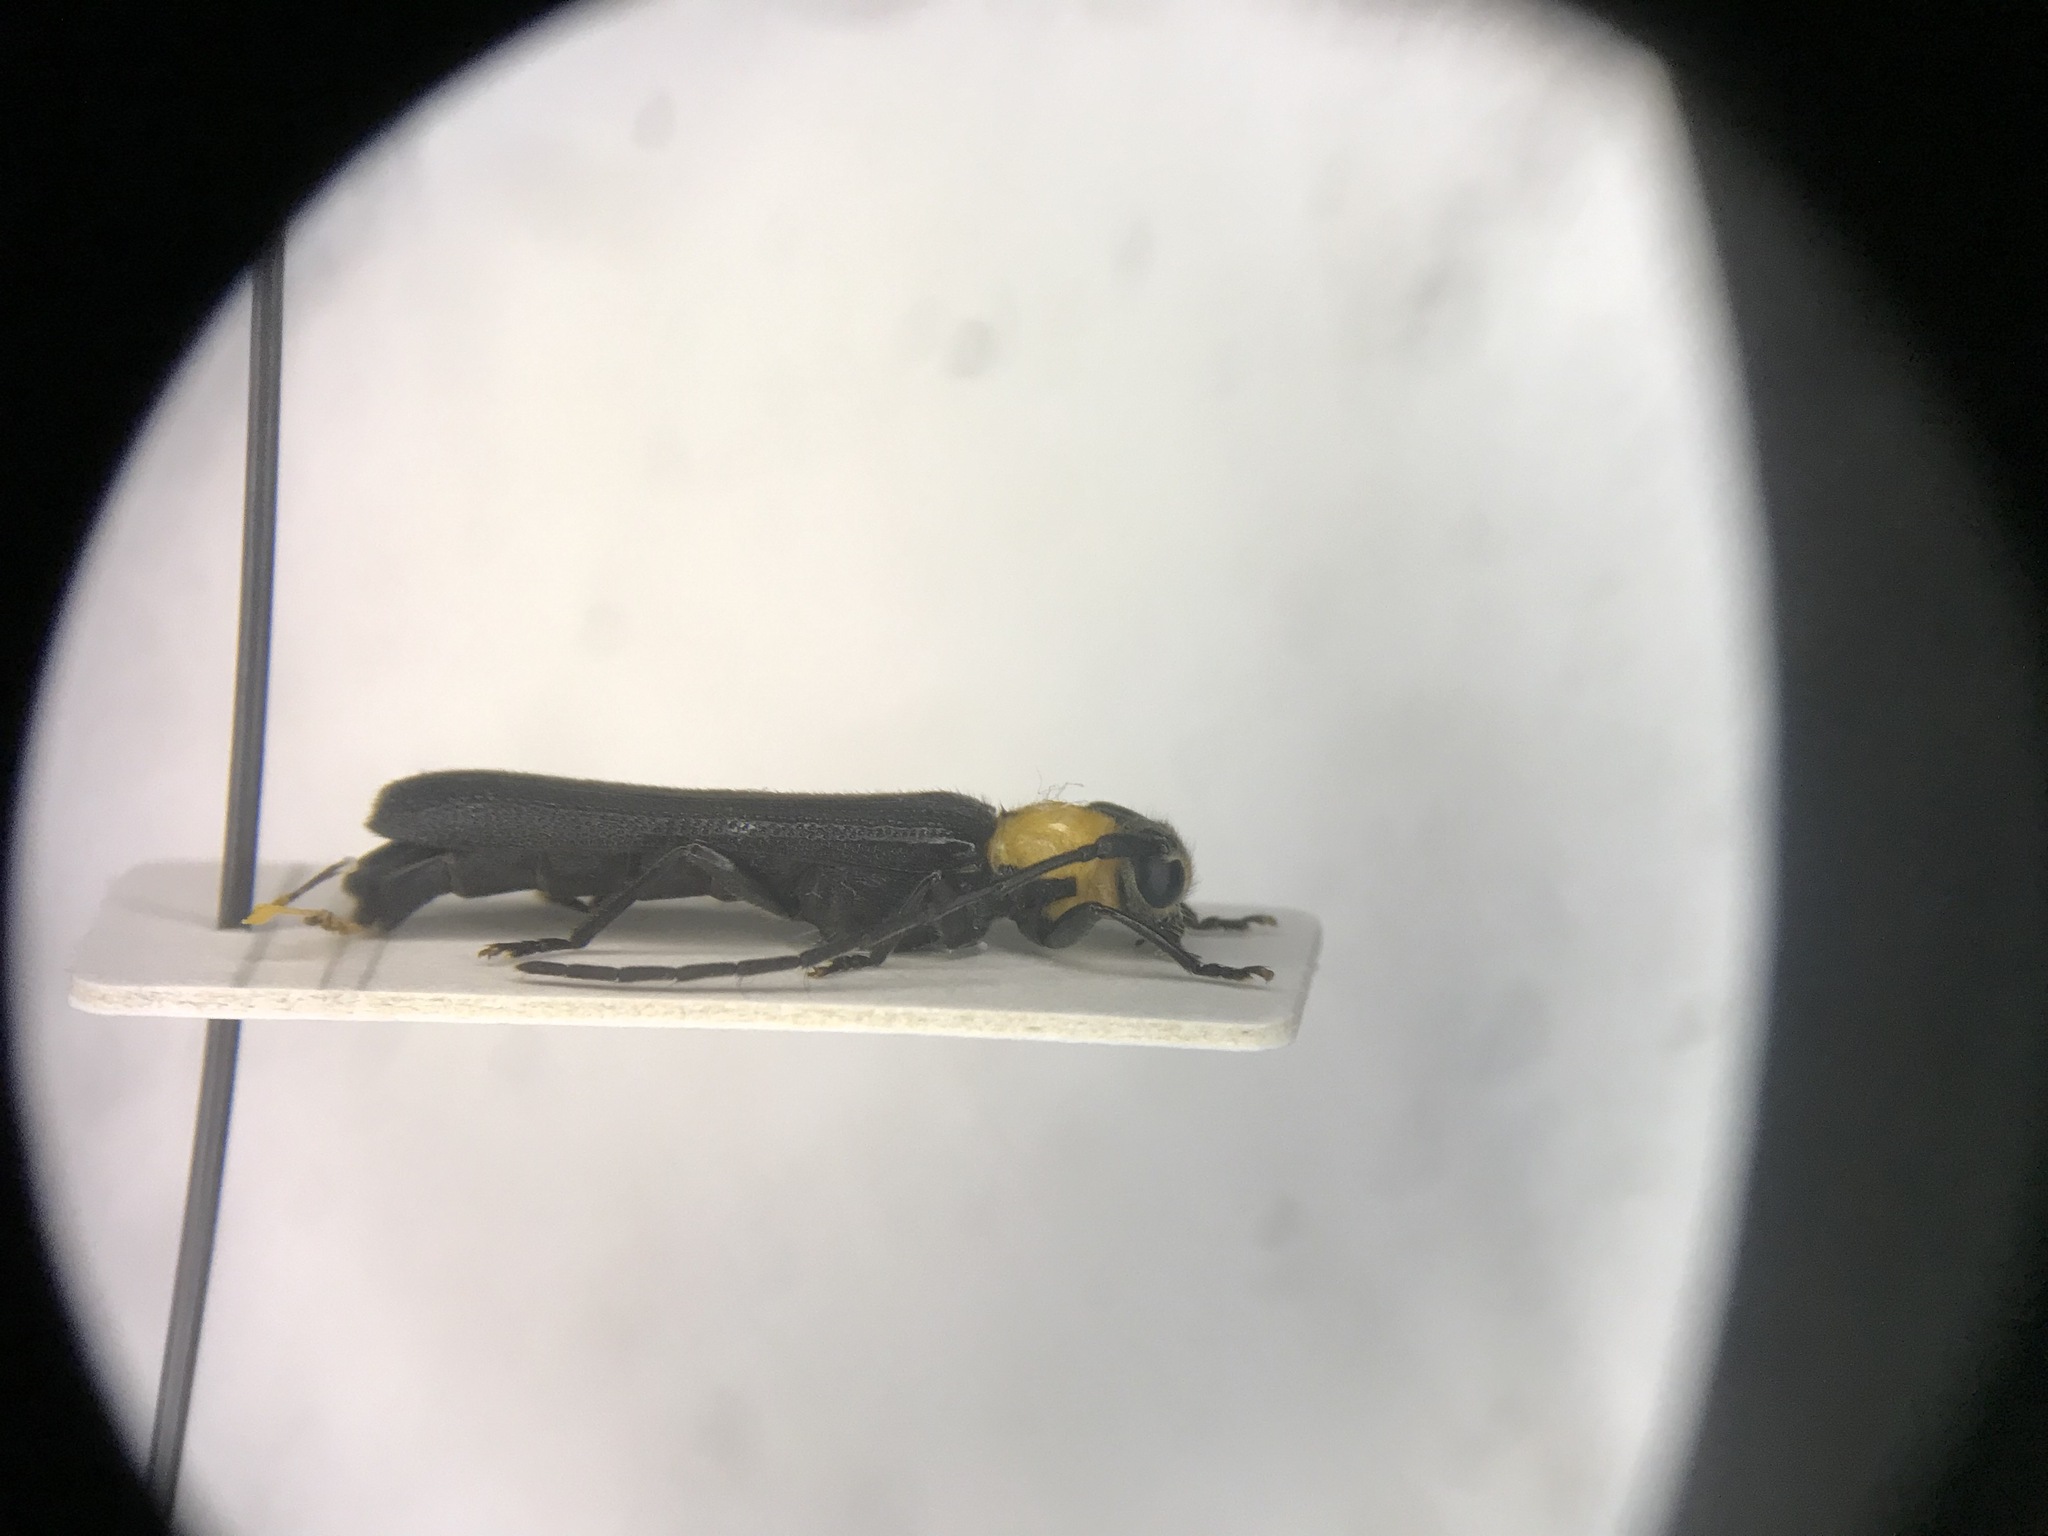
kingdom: Animalia
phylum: Arthropoda
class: Insecta
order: Coleoptera
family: Cerambycidae
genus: Oberea
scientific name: Oberea affinis
